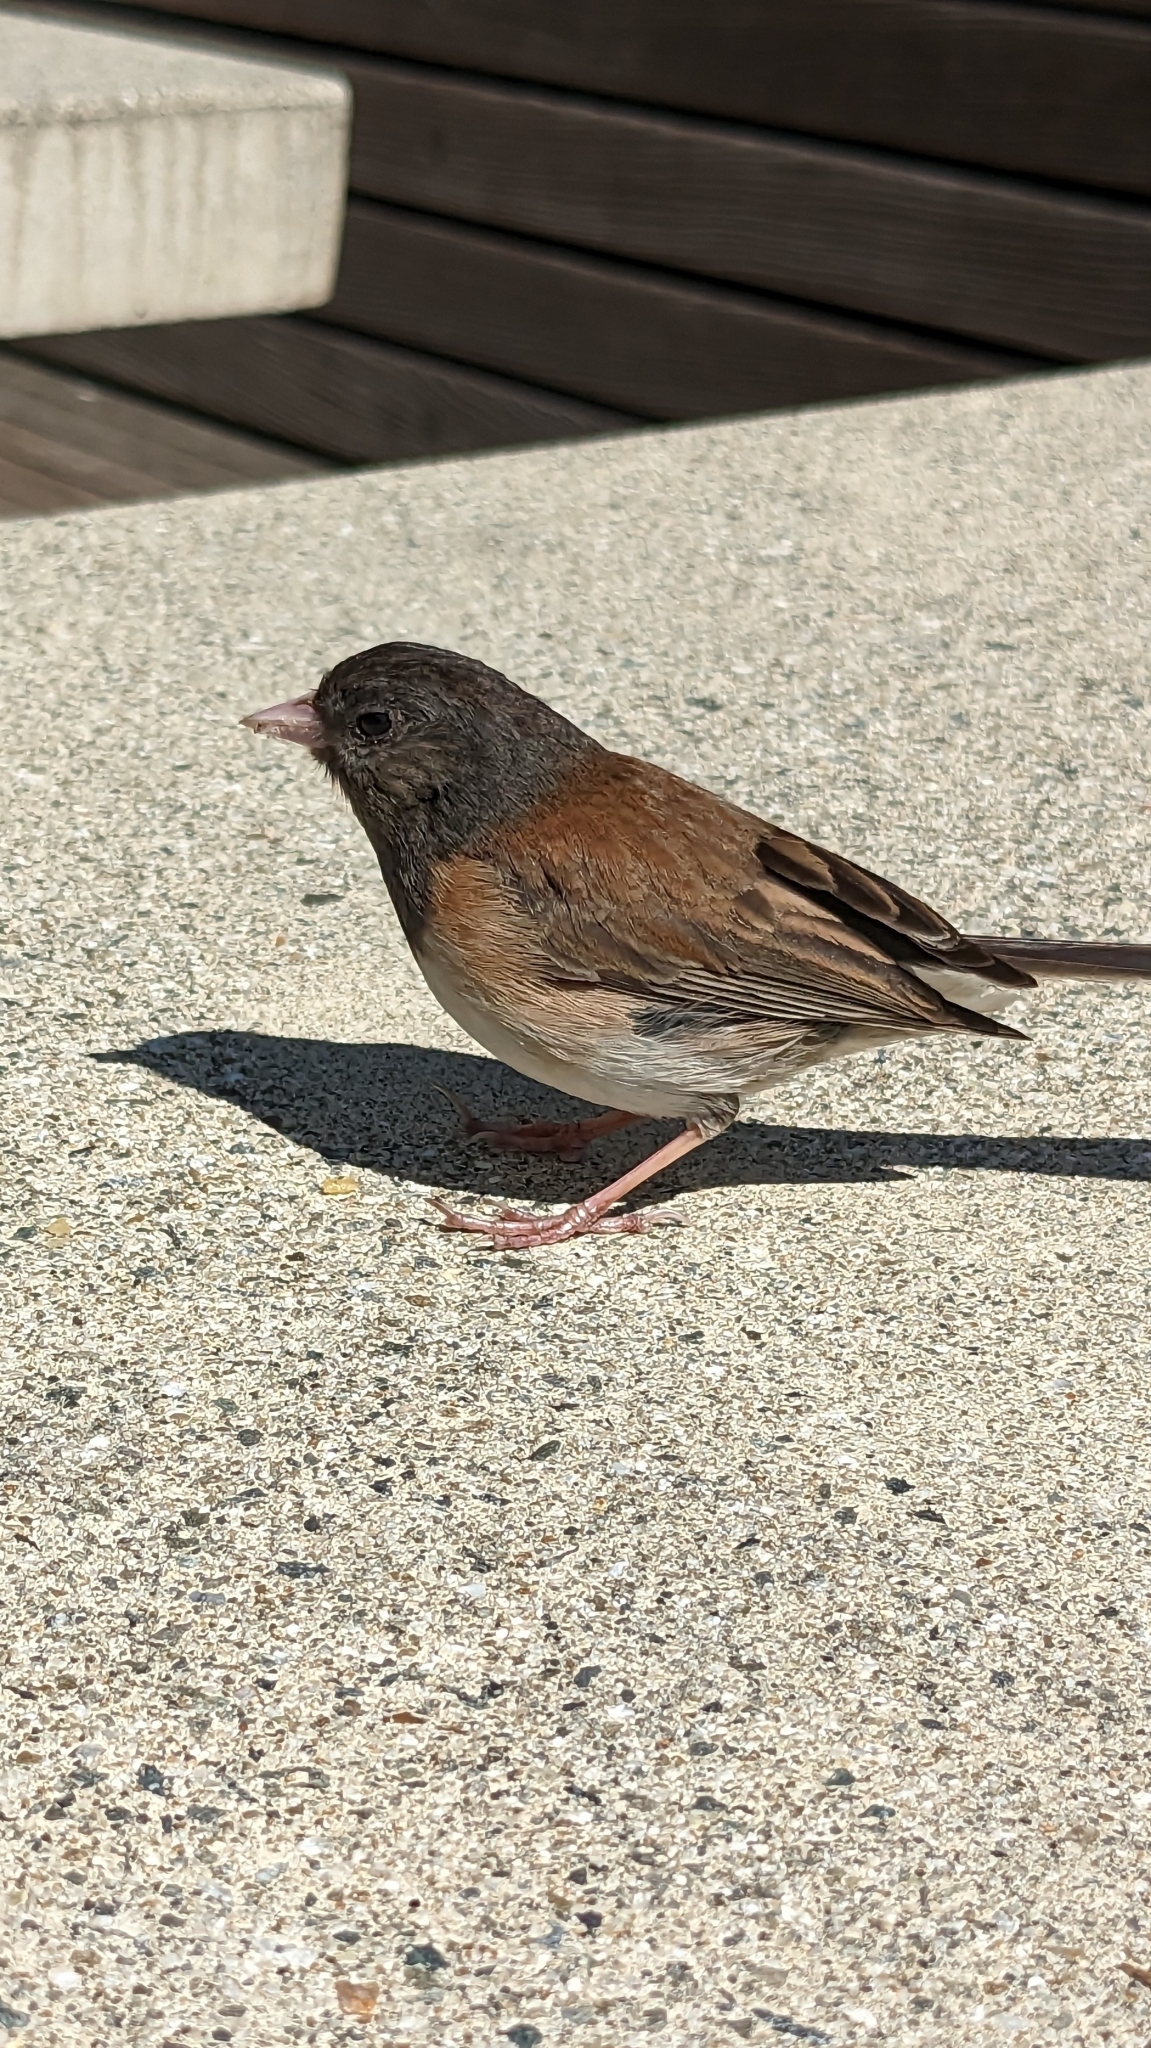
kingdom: Animalia
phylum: Chordata
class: Aves
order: Passeriformes
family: Passerellidae
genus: Junco
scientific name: Junco hyemalis
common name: Dark-eyed junco
